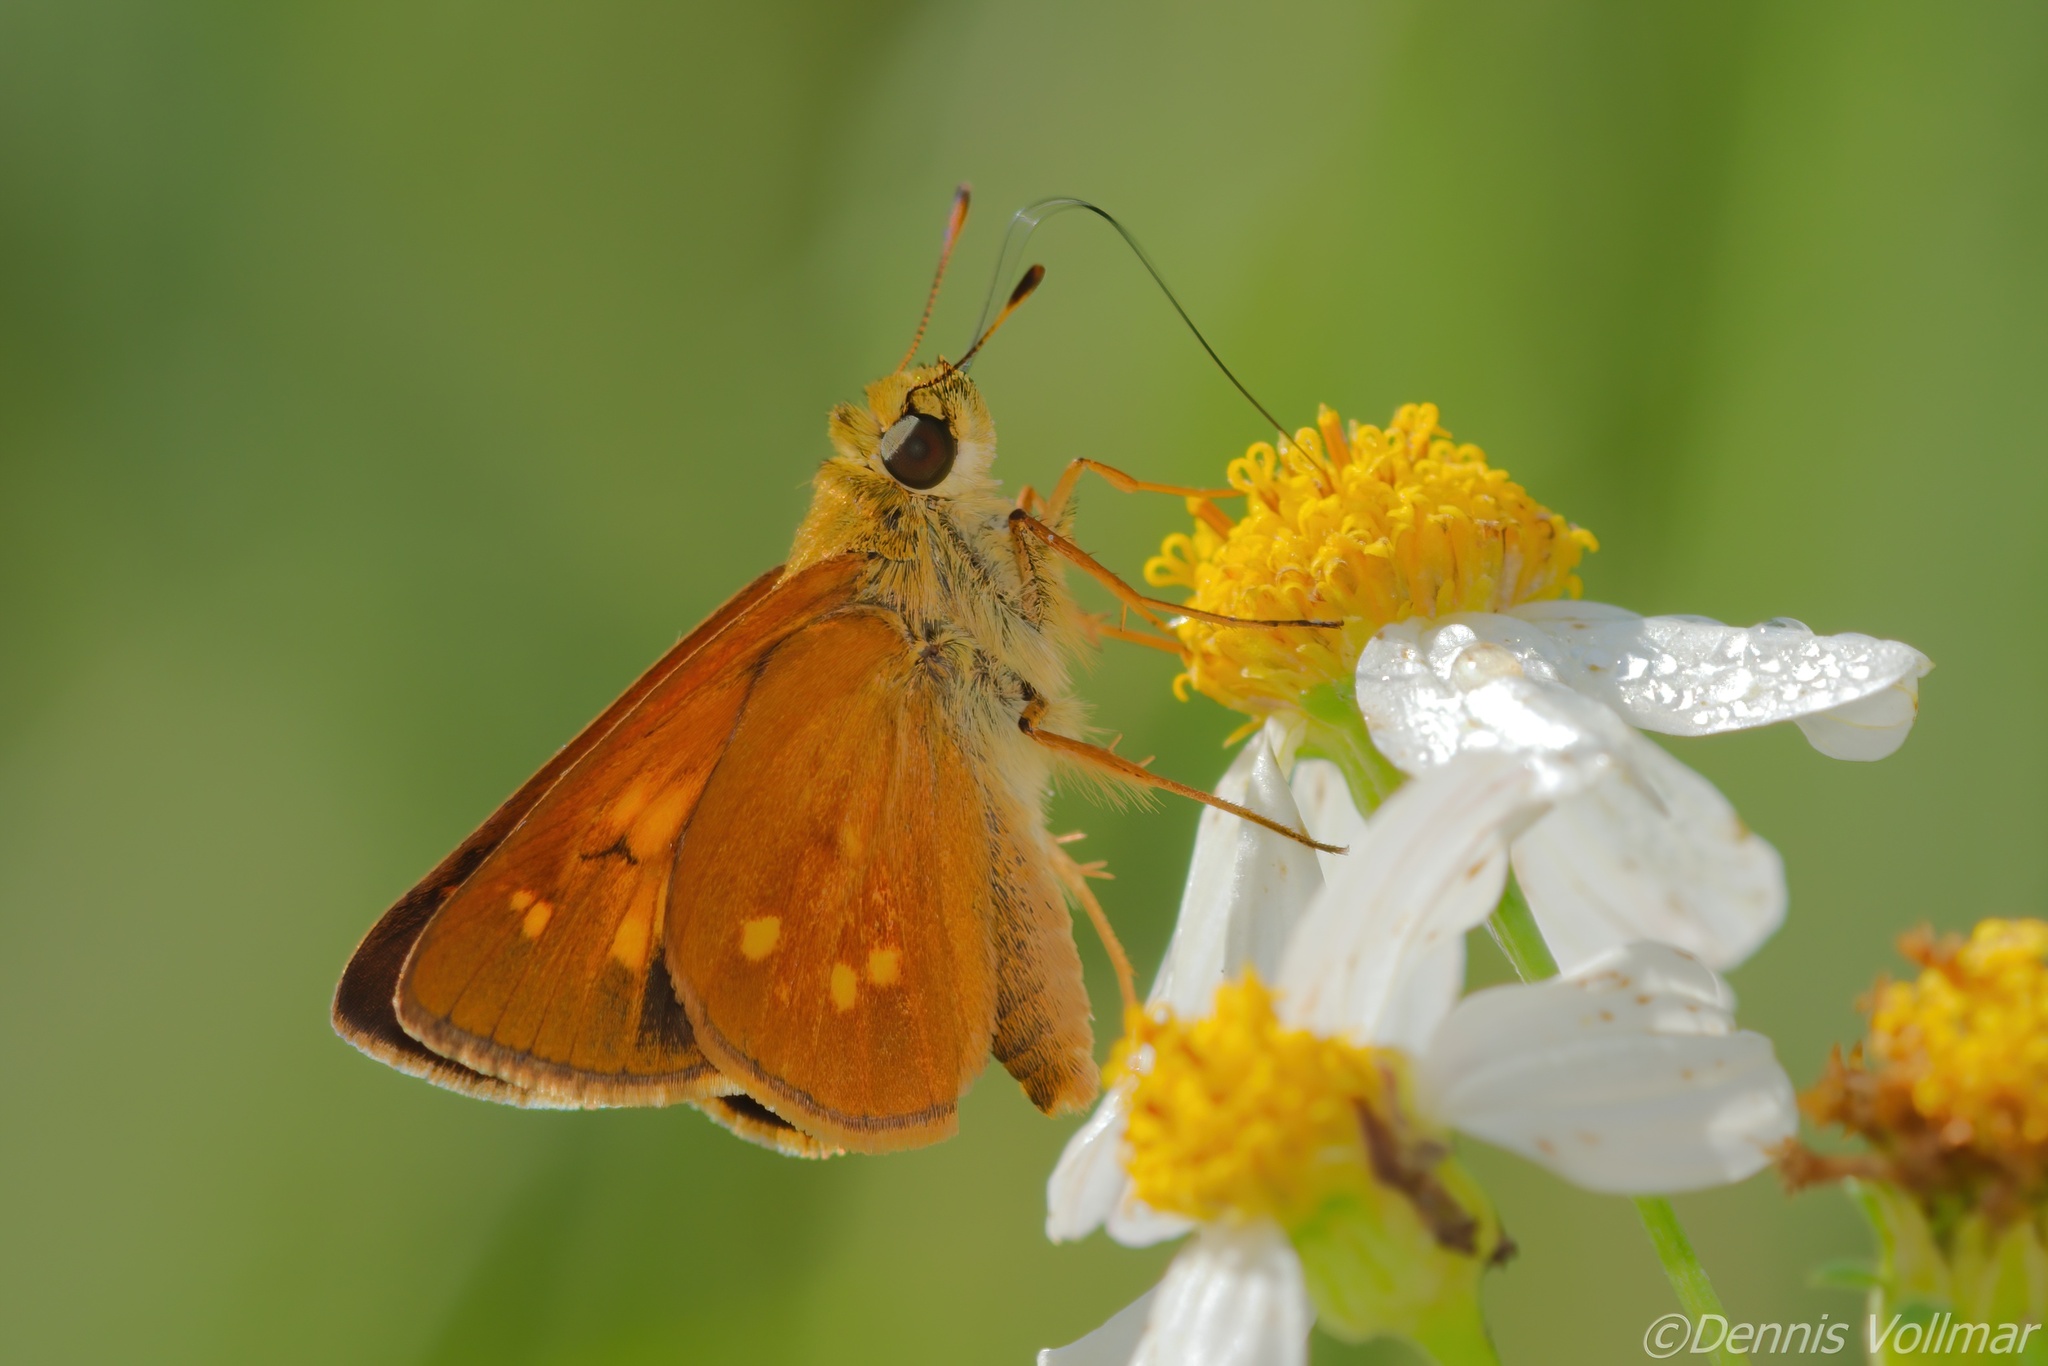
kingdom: Animalia
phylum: Arthropoda
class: Insecta
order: Lepidoptera
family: Hesperiidae
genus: Poanes
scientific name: Poanes yehl
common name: Yehl skipper
